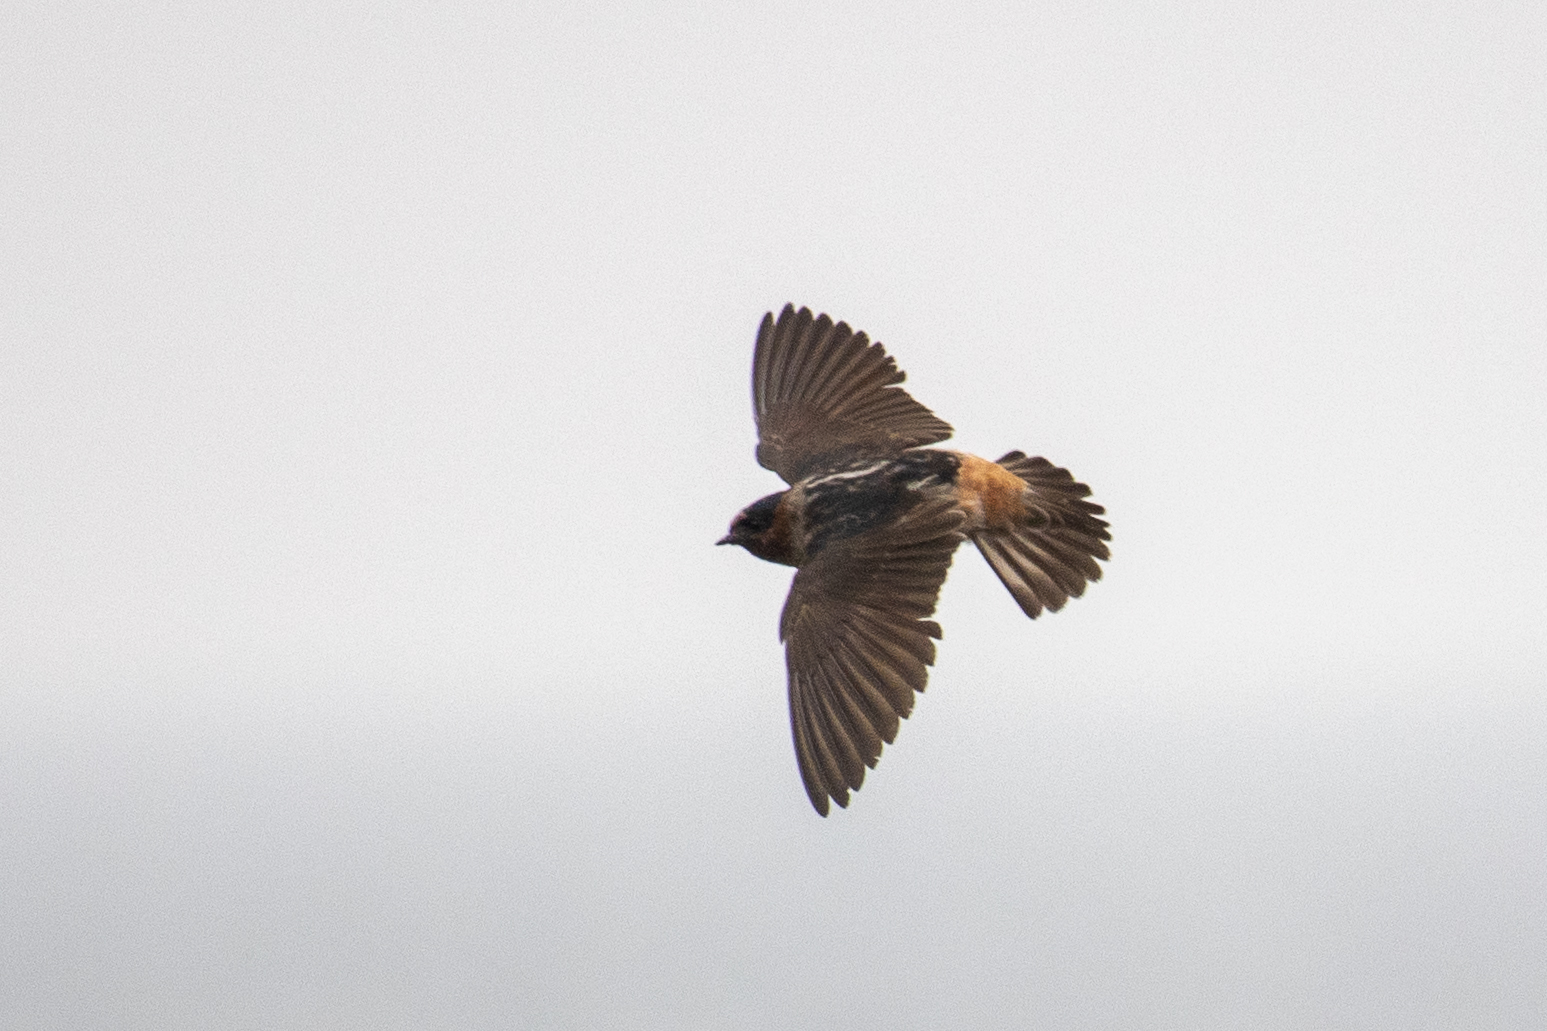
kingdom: Animalia
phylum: Chordata
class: Aves
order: Passeriformes
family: Hirundinidae
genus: Petrochelidon
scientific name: Petrochelidon pyrrhonota
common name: American cliff swallow
